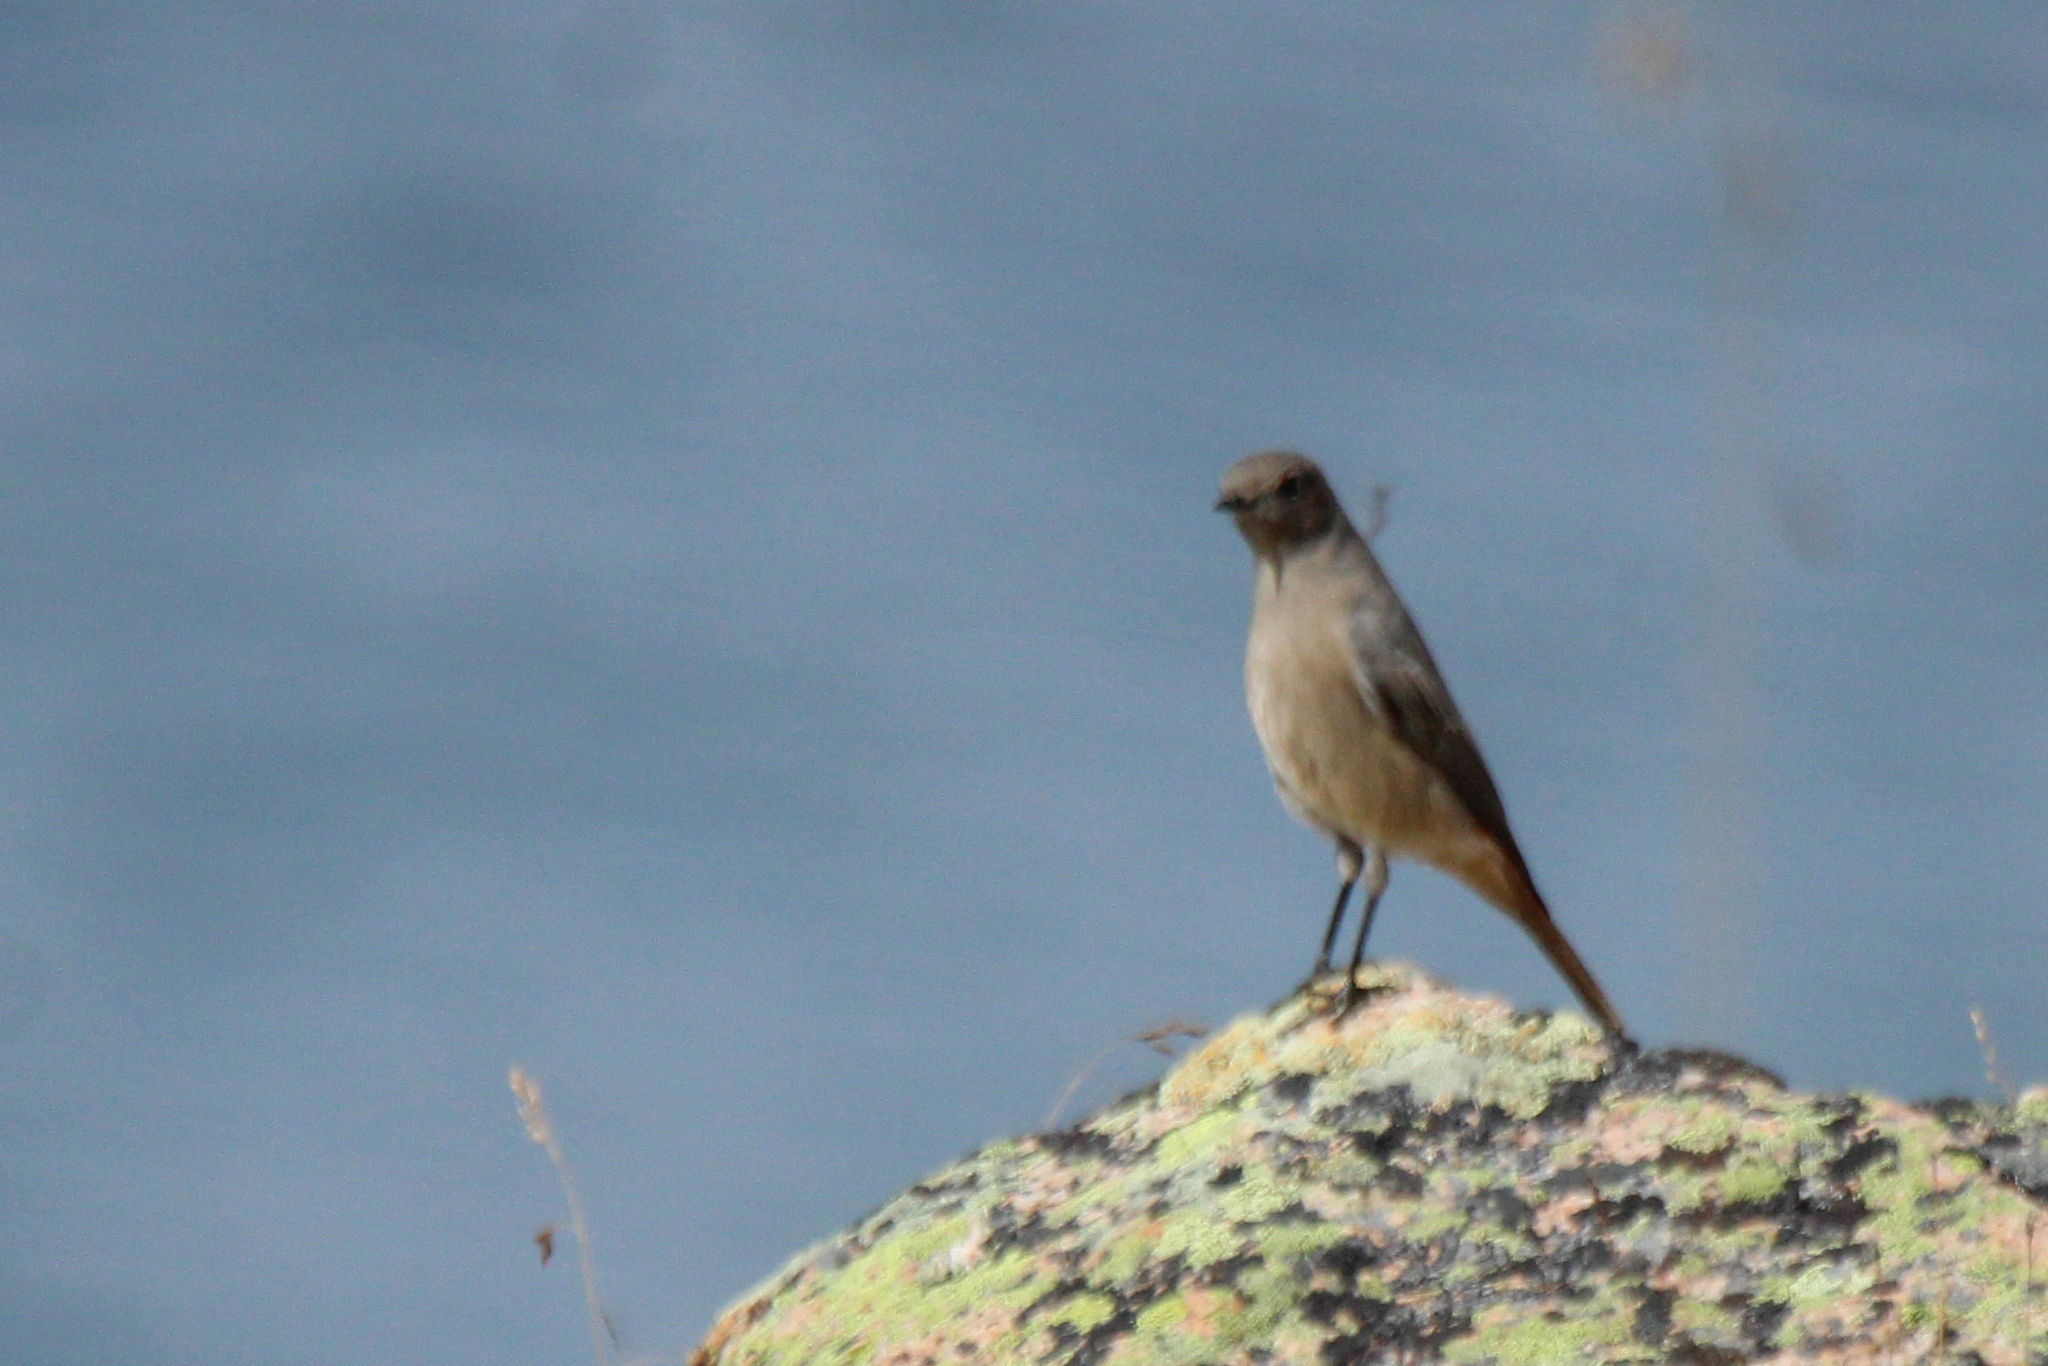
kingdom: Animalia
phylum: Chordata
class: Aves
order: Passeriformes
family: Muscicapidae
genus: Phoenicurus
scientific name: Phoenicurus erythrogastrus
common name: Güldenstädt's redstart
